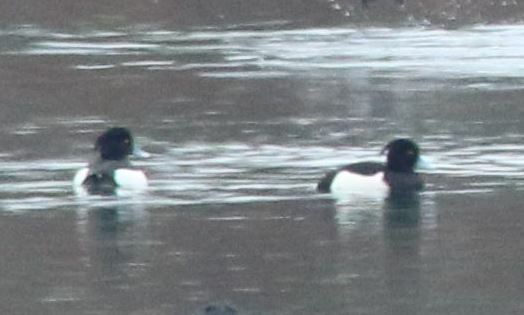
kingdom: Animalia
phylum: Chordata
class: Aves
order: Anseriformes
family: Anatidae
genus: Aythya
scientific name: Aythya fuligula
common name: Tufted duck
